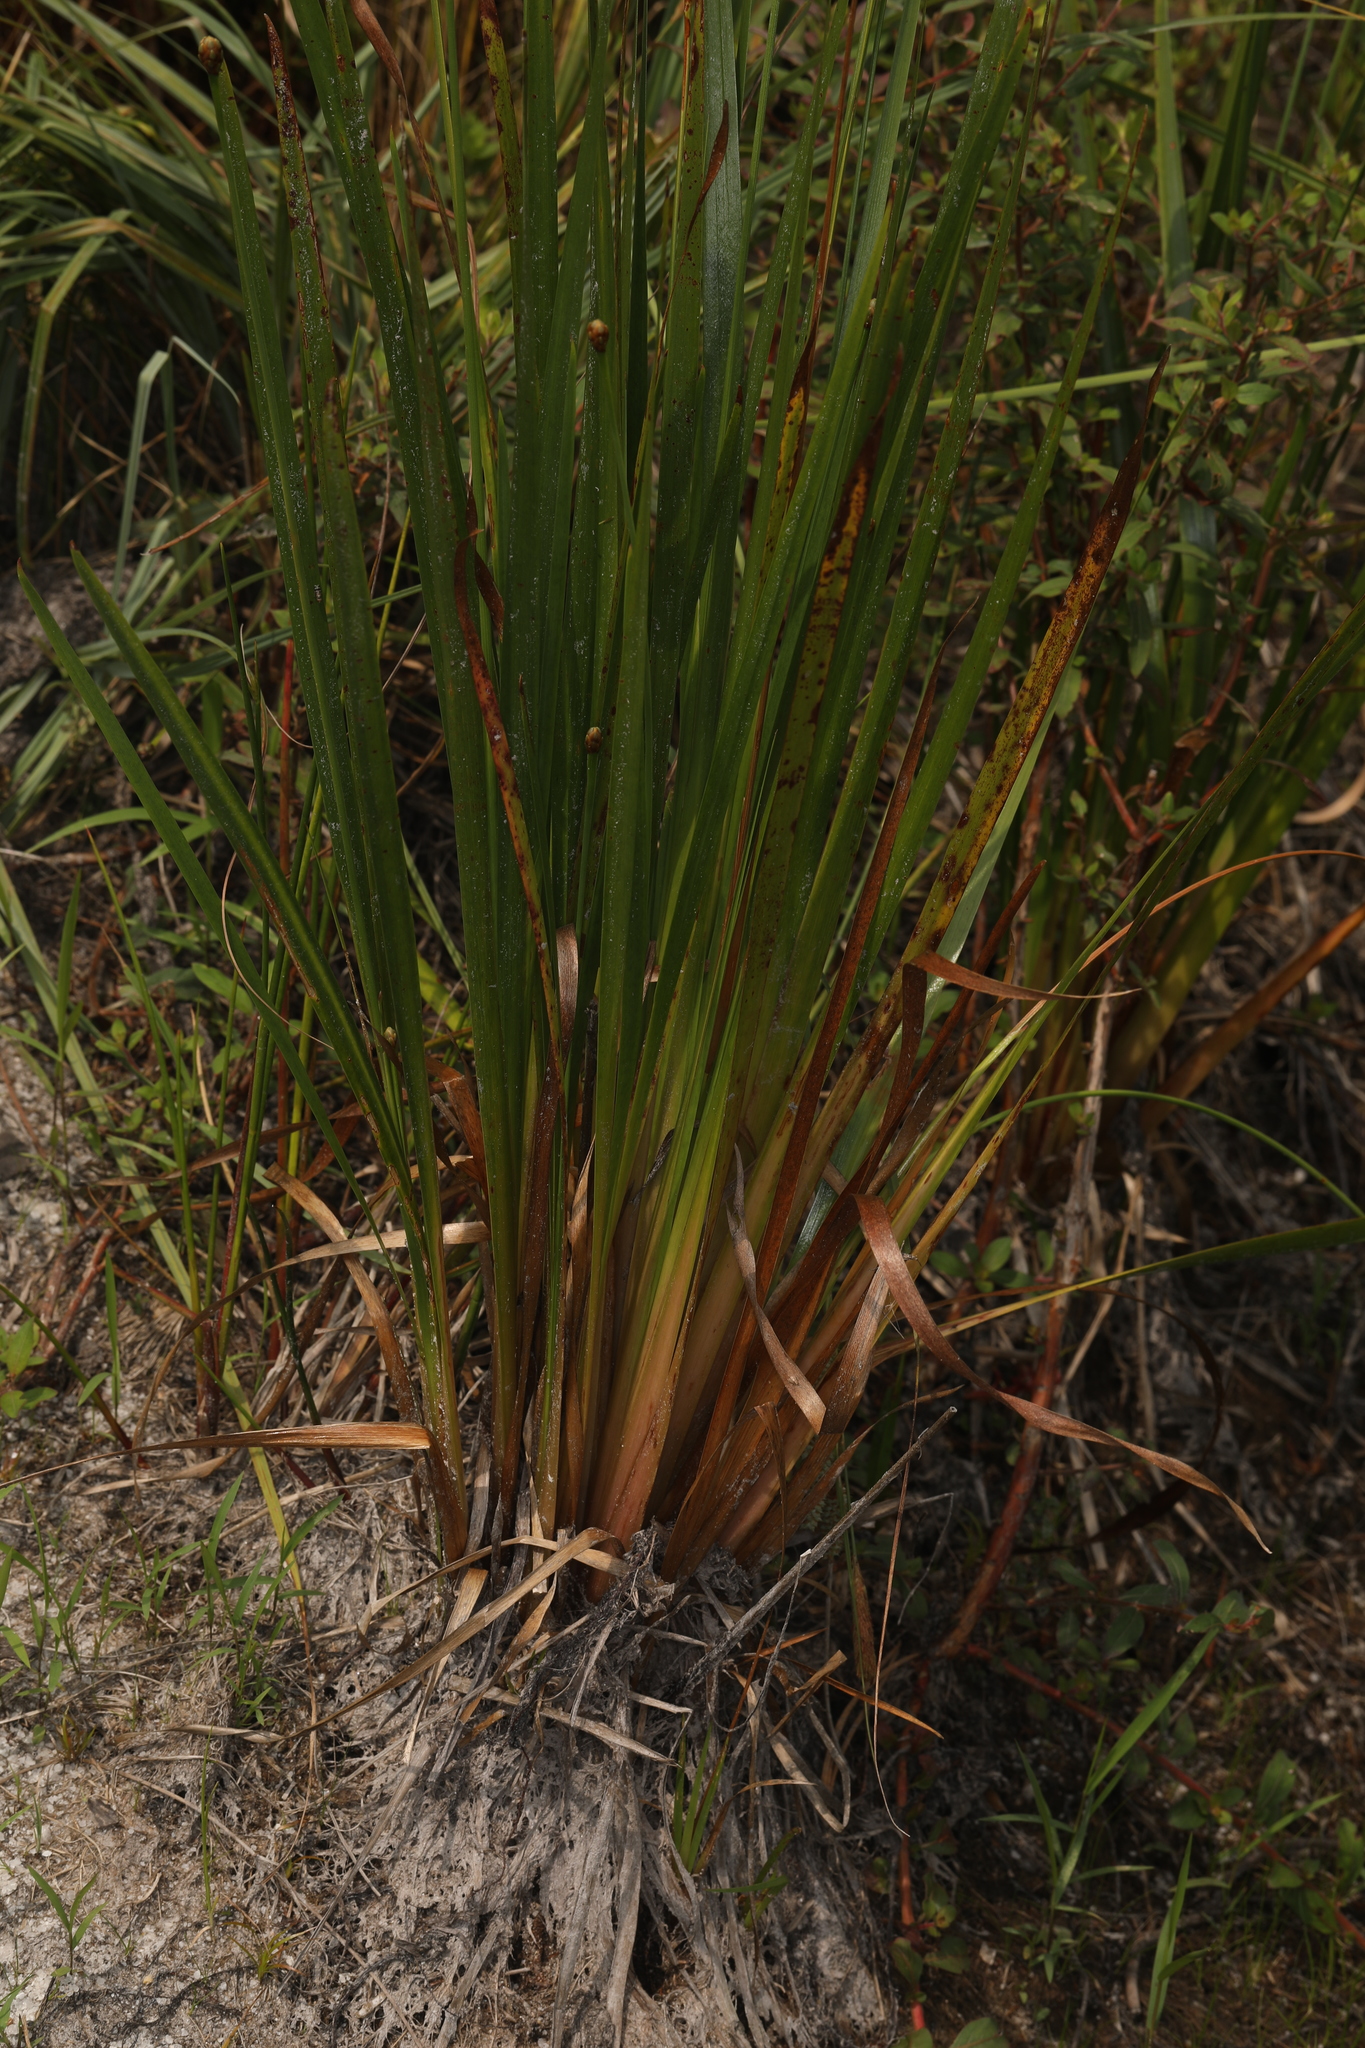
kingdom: Plantae
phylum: Tracheophyta
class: Liliopsida
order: Poales
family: Xyridaceae
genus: Xyris
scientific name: Xyris fimbriata
